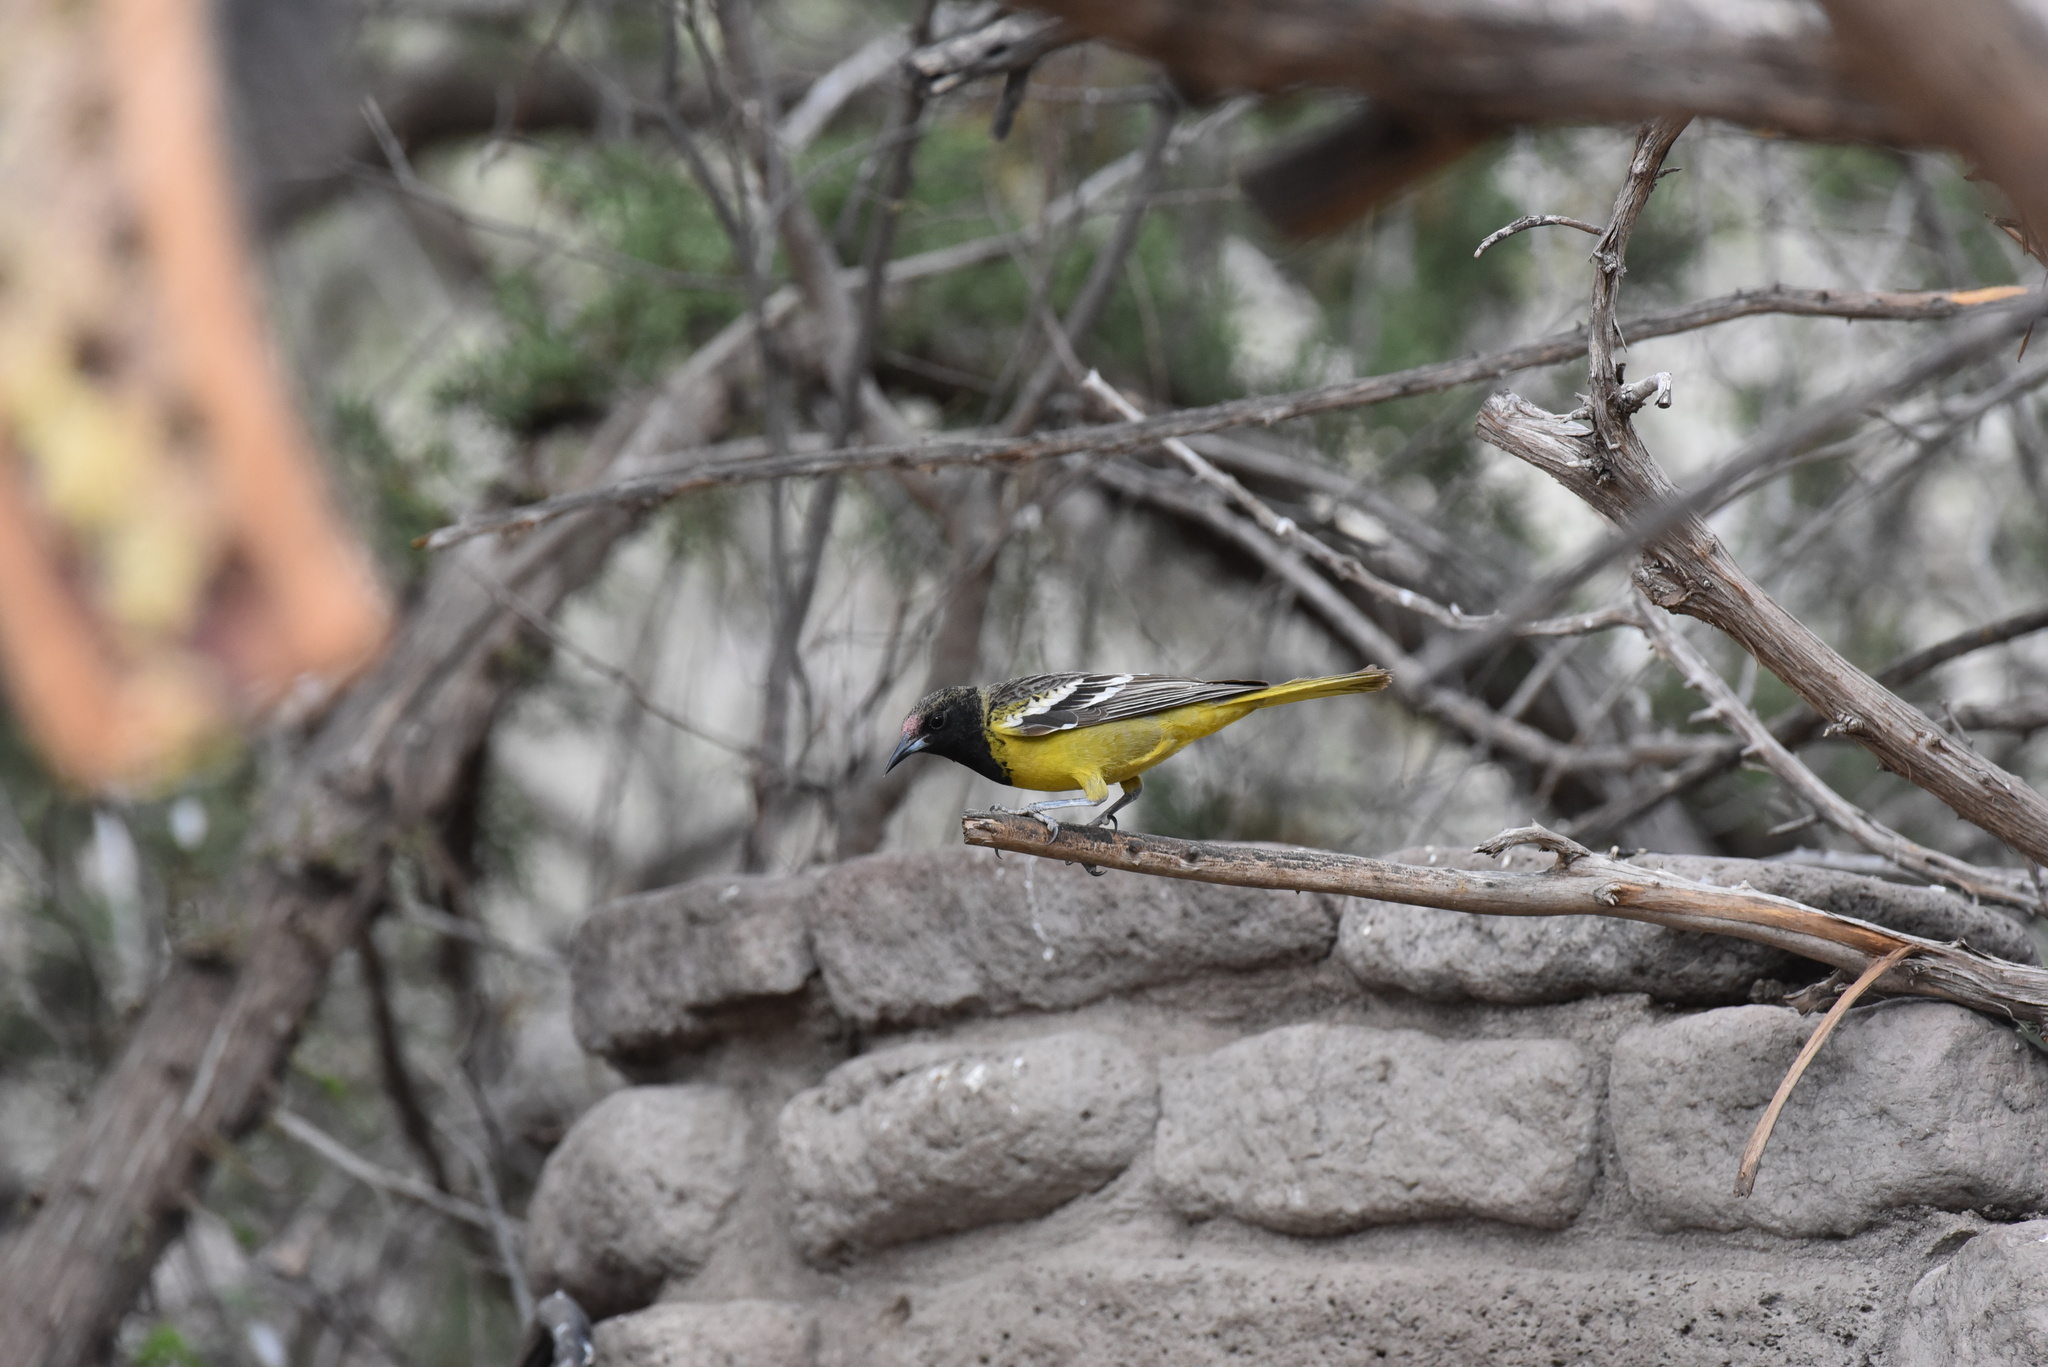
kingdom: Animalia
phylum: Chordata
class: Aves
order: Passeriformes
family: Icteridae
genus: Icterus
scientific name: Icterus parisorum
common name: Scott's oriole
